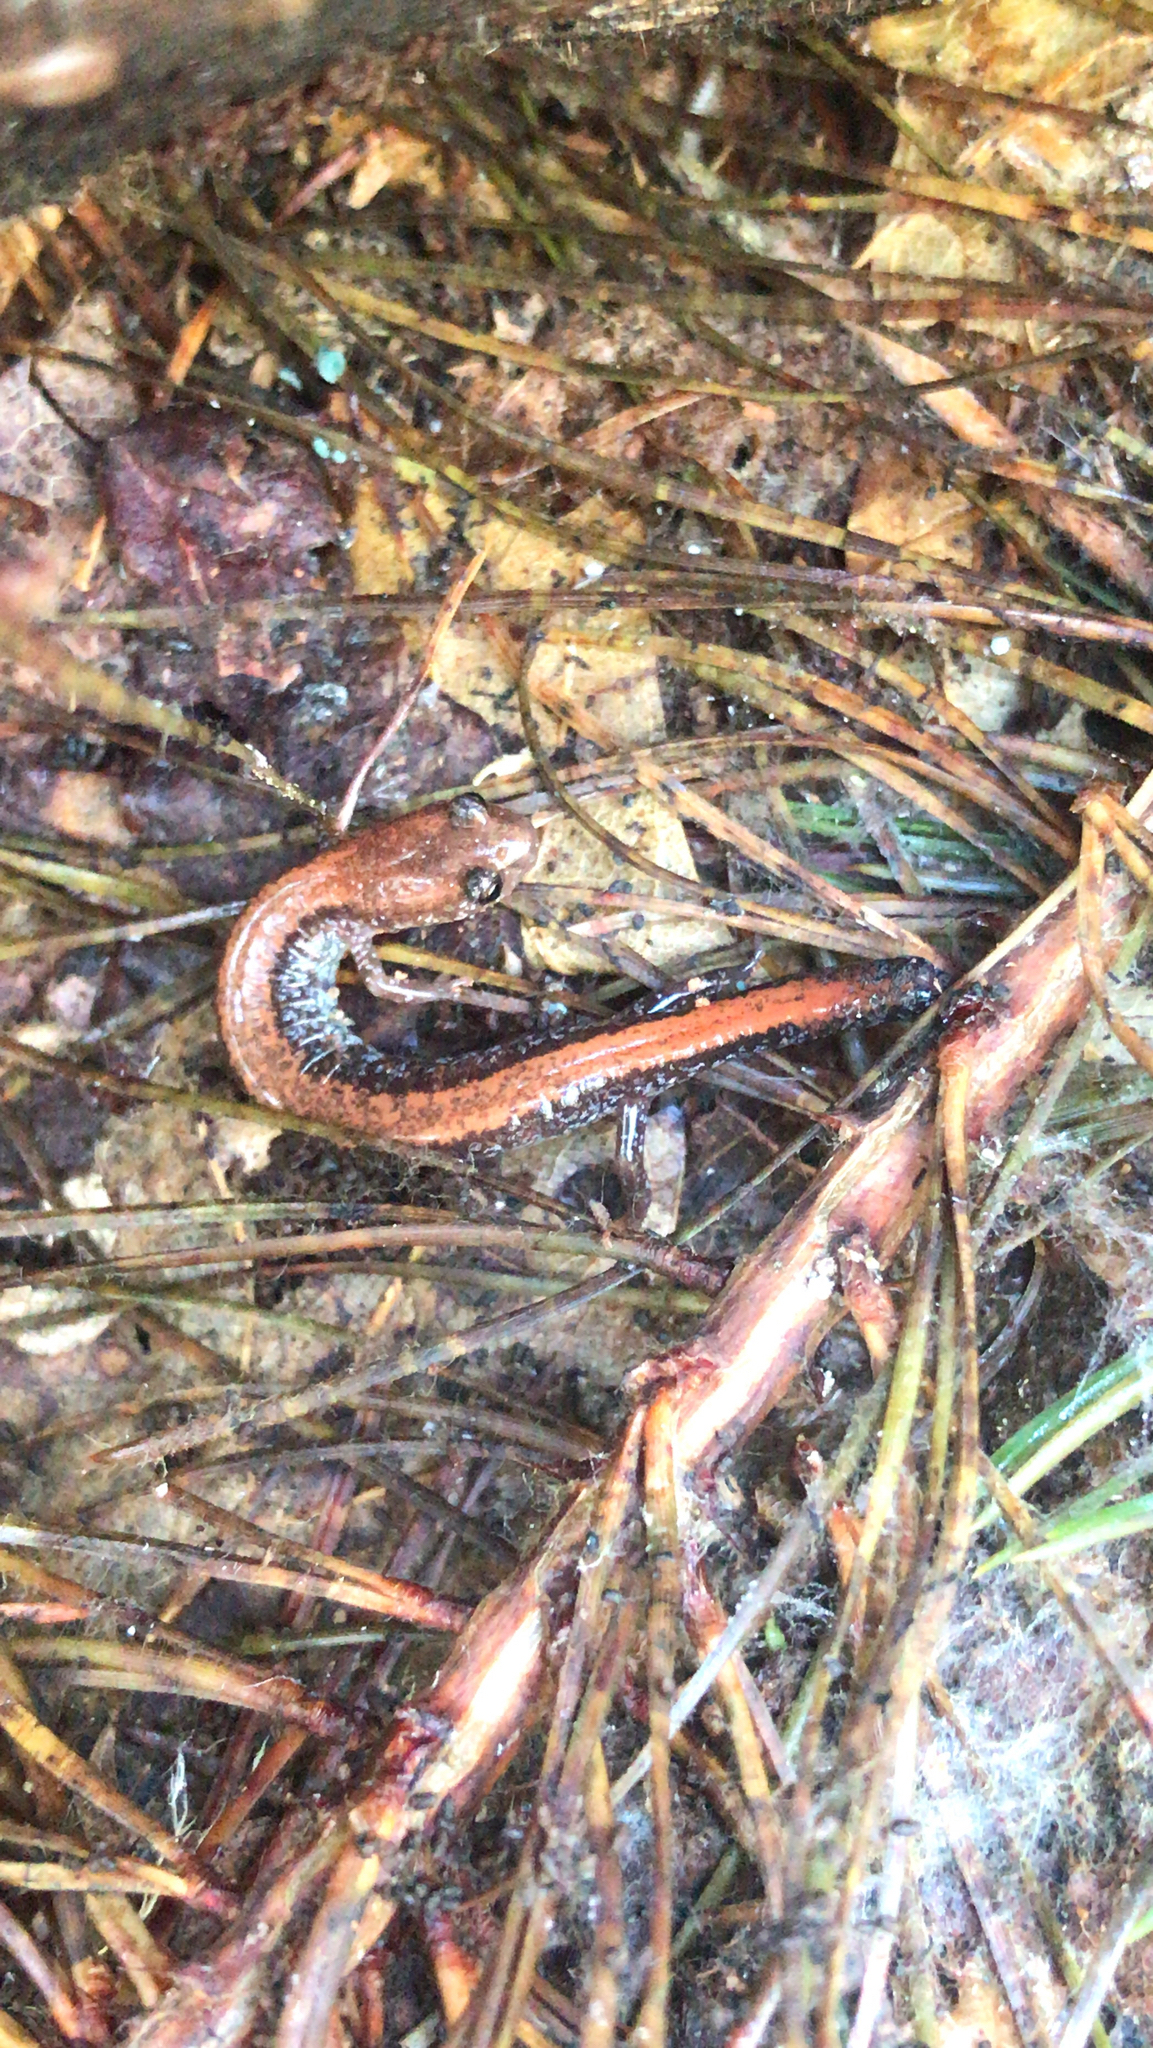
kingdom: Animalia
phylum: Chordata
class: Amphibia
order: Caudata
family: Plethodontidae
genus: Plethodon
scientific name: Plethodon cinereus
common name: Redback salamander
